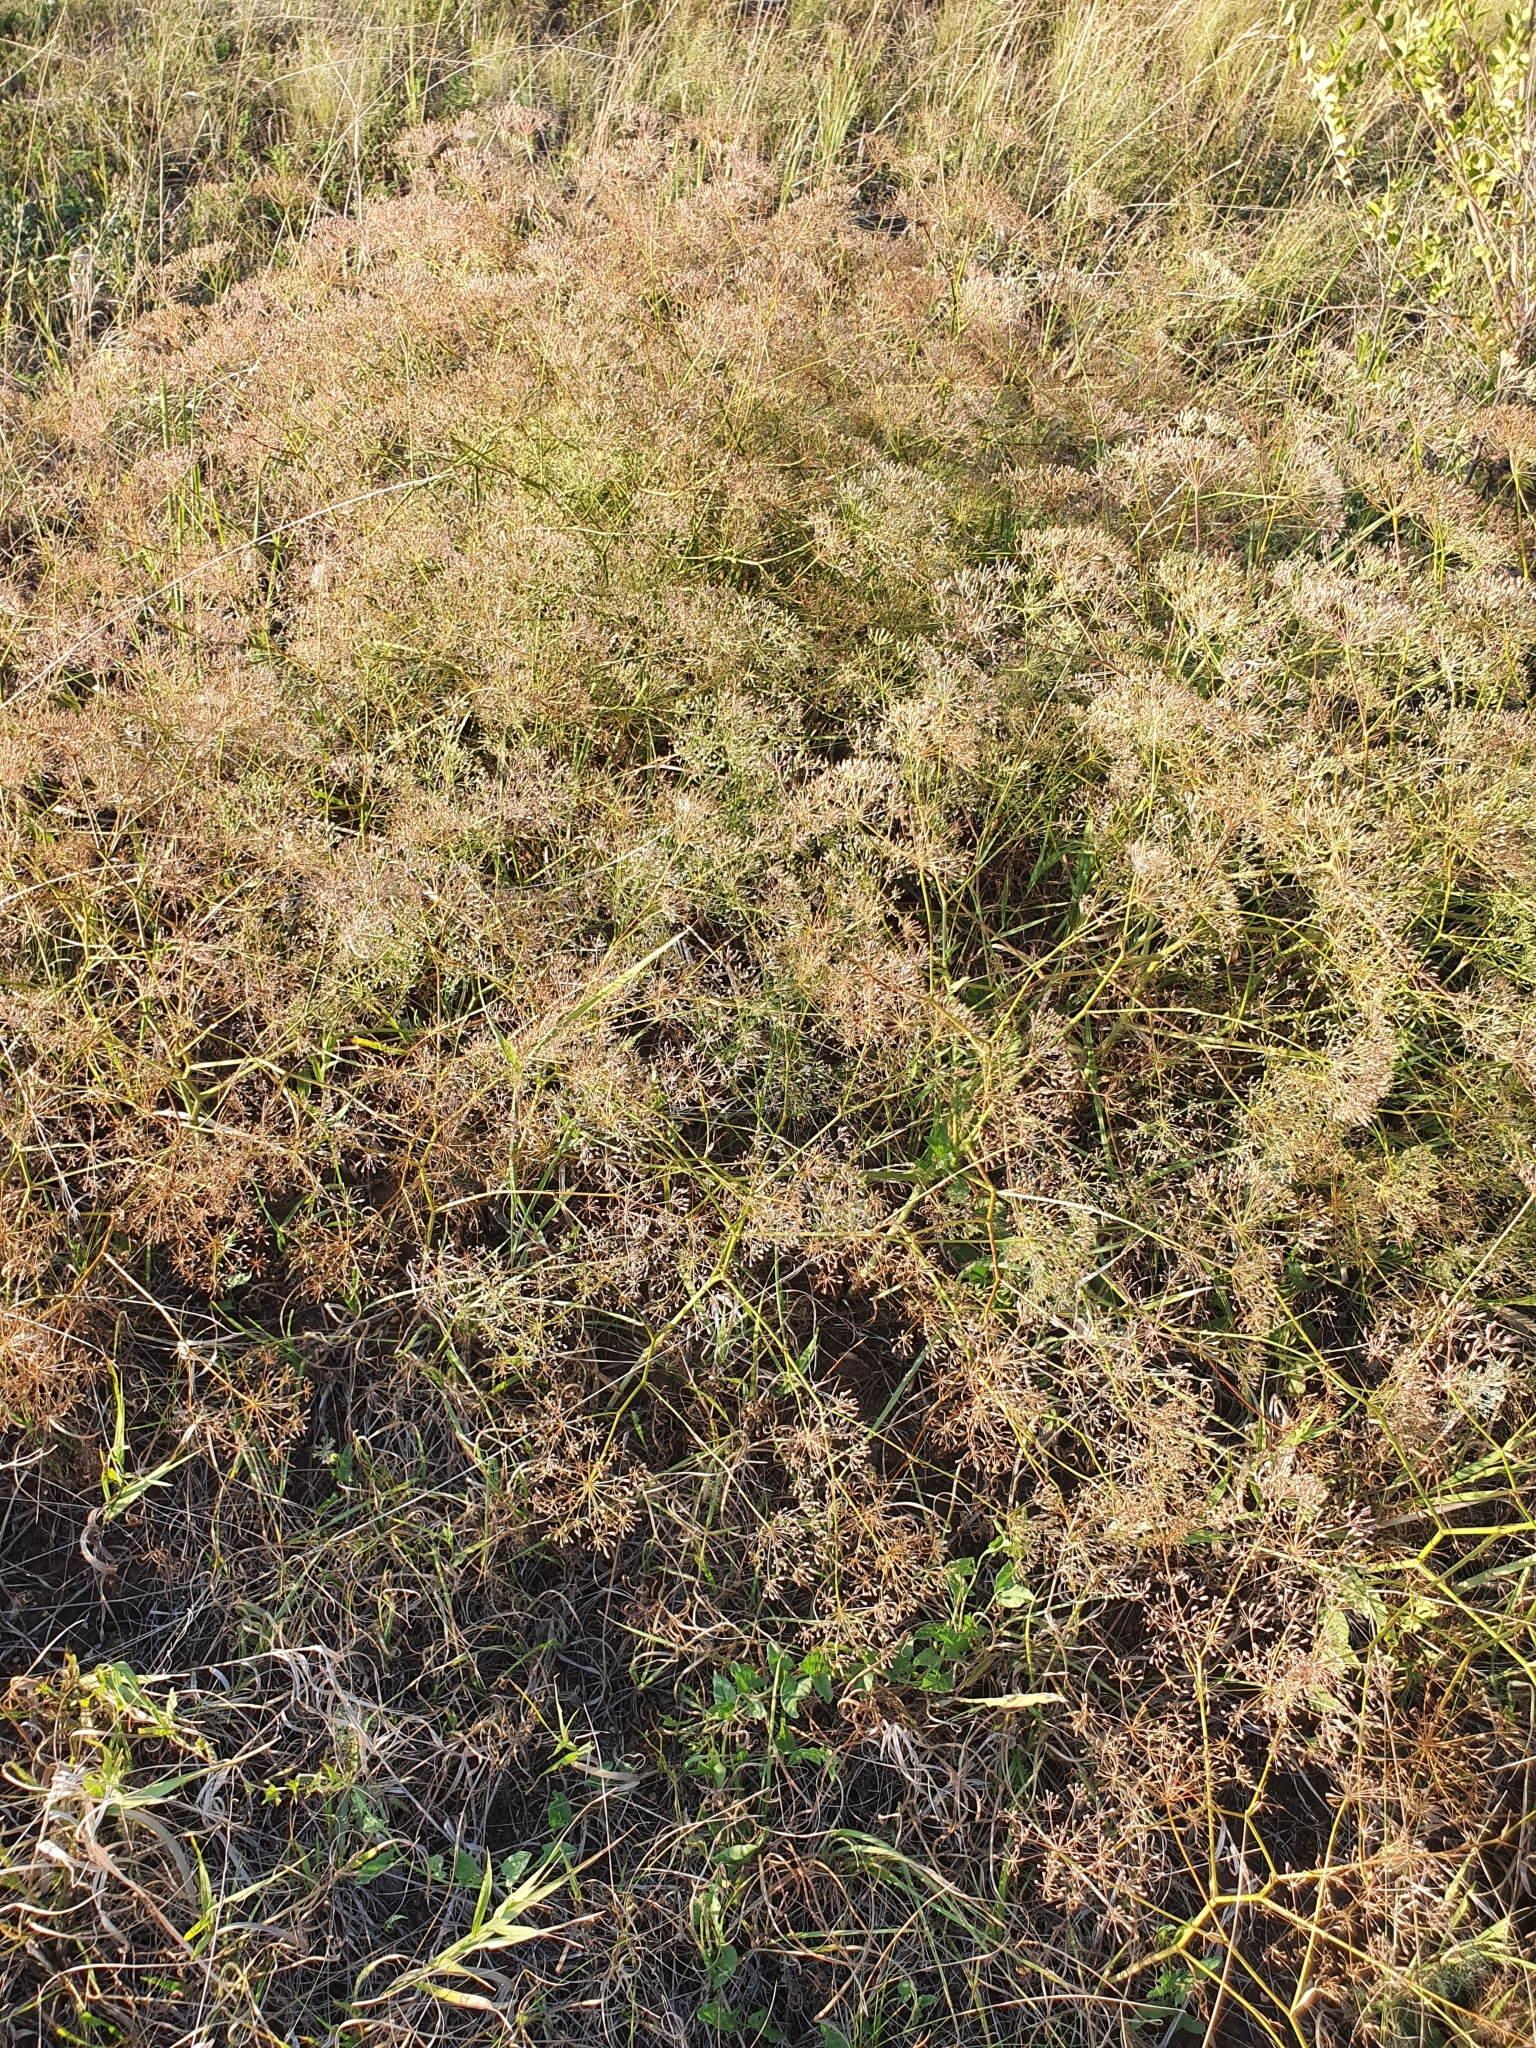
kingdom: Plantae
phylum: Tracheophyta
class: Magnoliopsida
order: Apiales
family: Apiaceae
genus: Falcaria
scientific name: Falcaria vulgaris
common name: Longleaf
